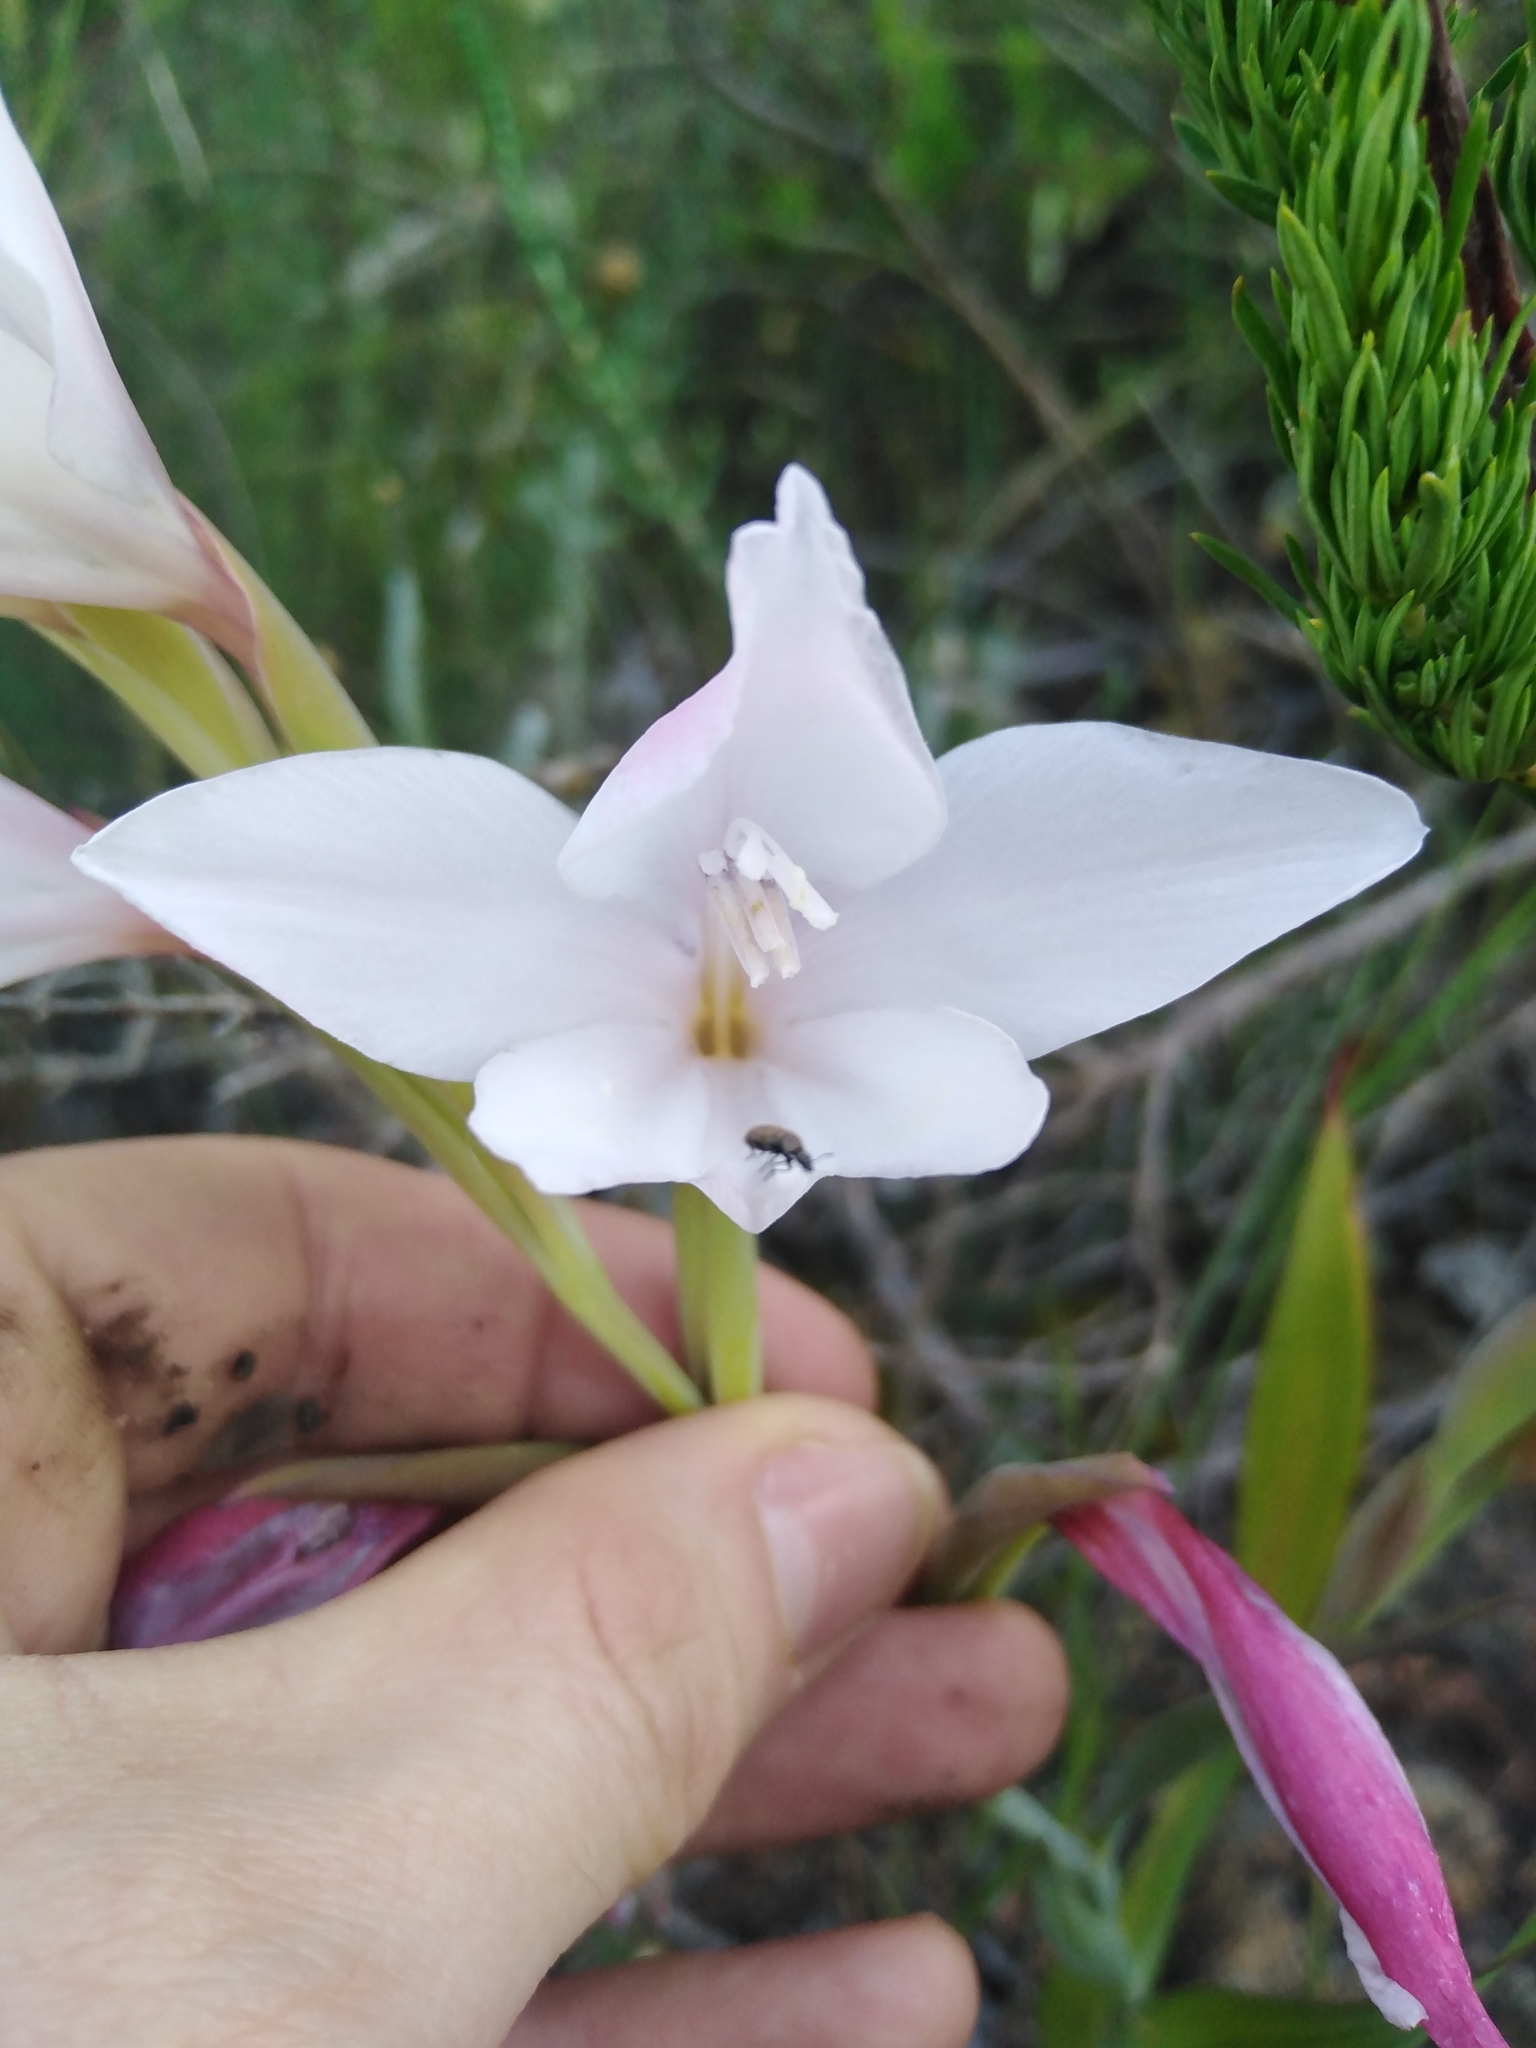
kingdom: Plantae
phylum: Tracheophyta
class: Liliopsida
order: Asparagales
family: Iridaceae
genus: Gladiolus
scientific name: Gladiolus carneus
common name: Painted-lady
